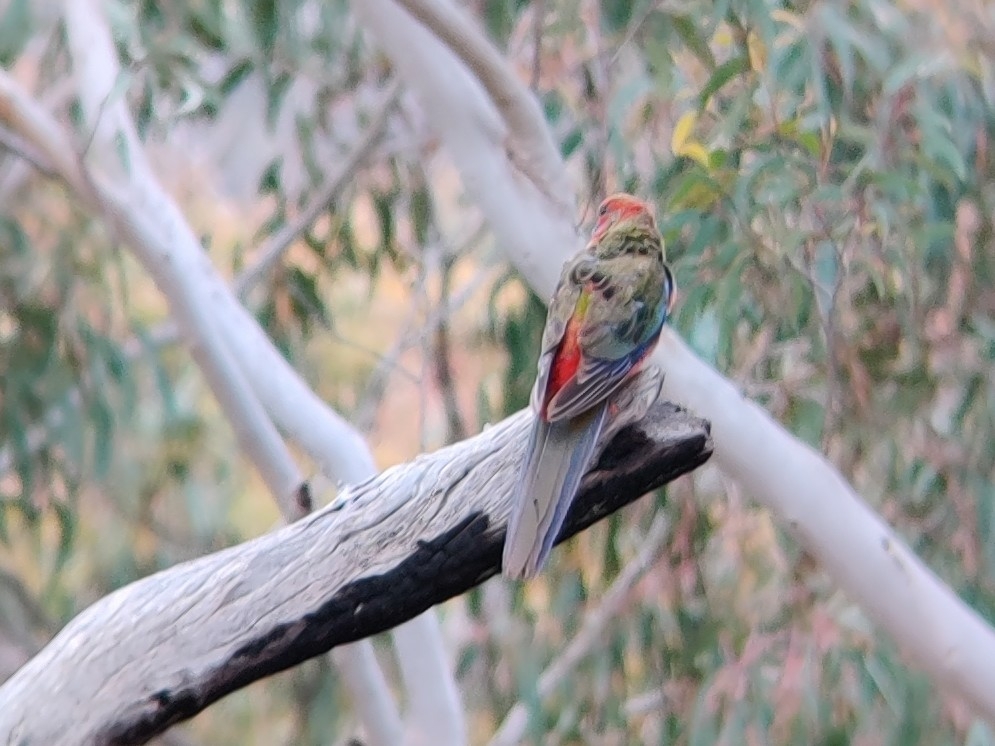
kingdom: Animalia
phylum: Chordata
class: Aves
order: Psittaciformes
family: Psittacidae
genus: Platycercus
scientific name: Platycercus elegans
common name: Crimson rosella
